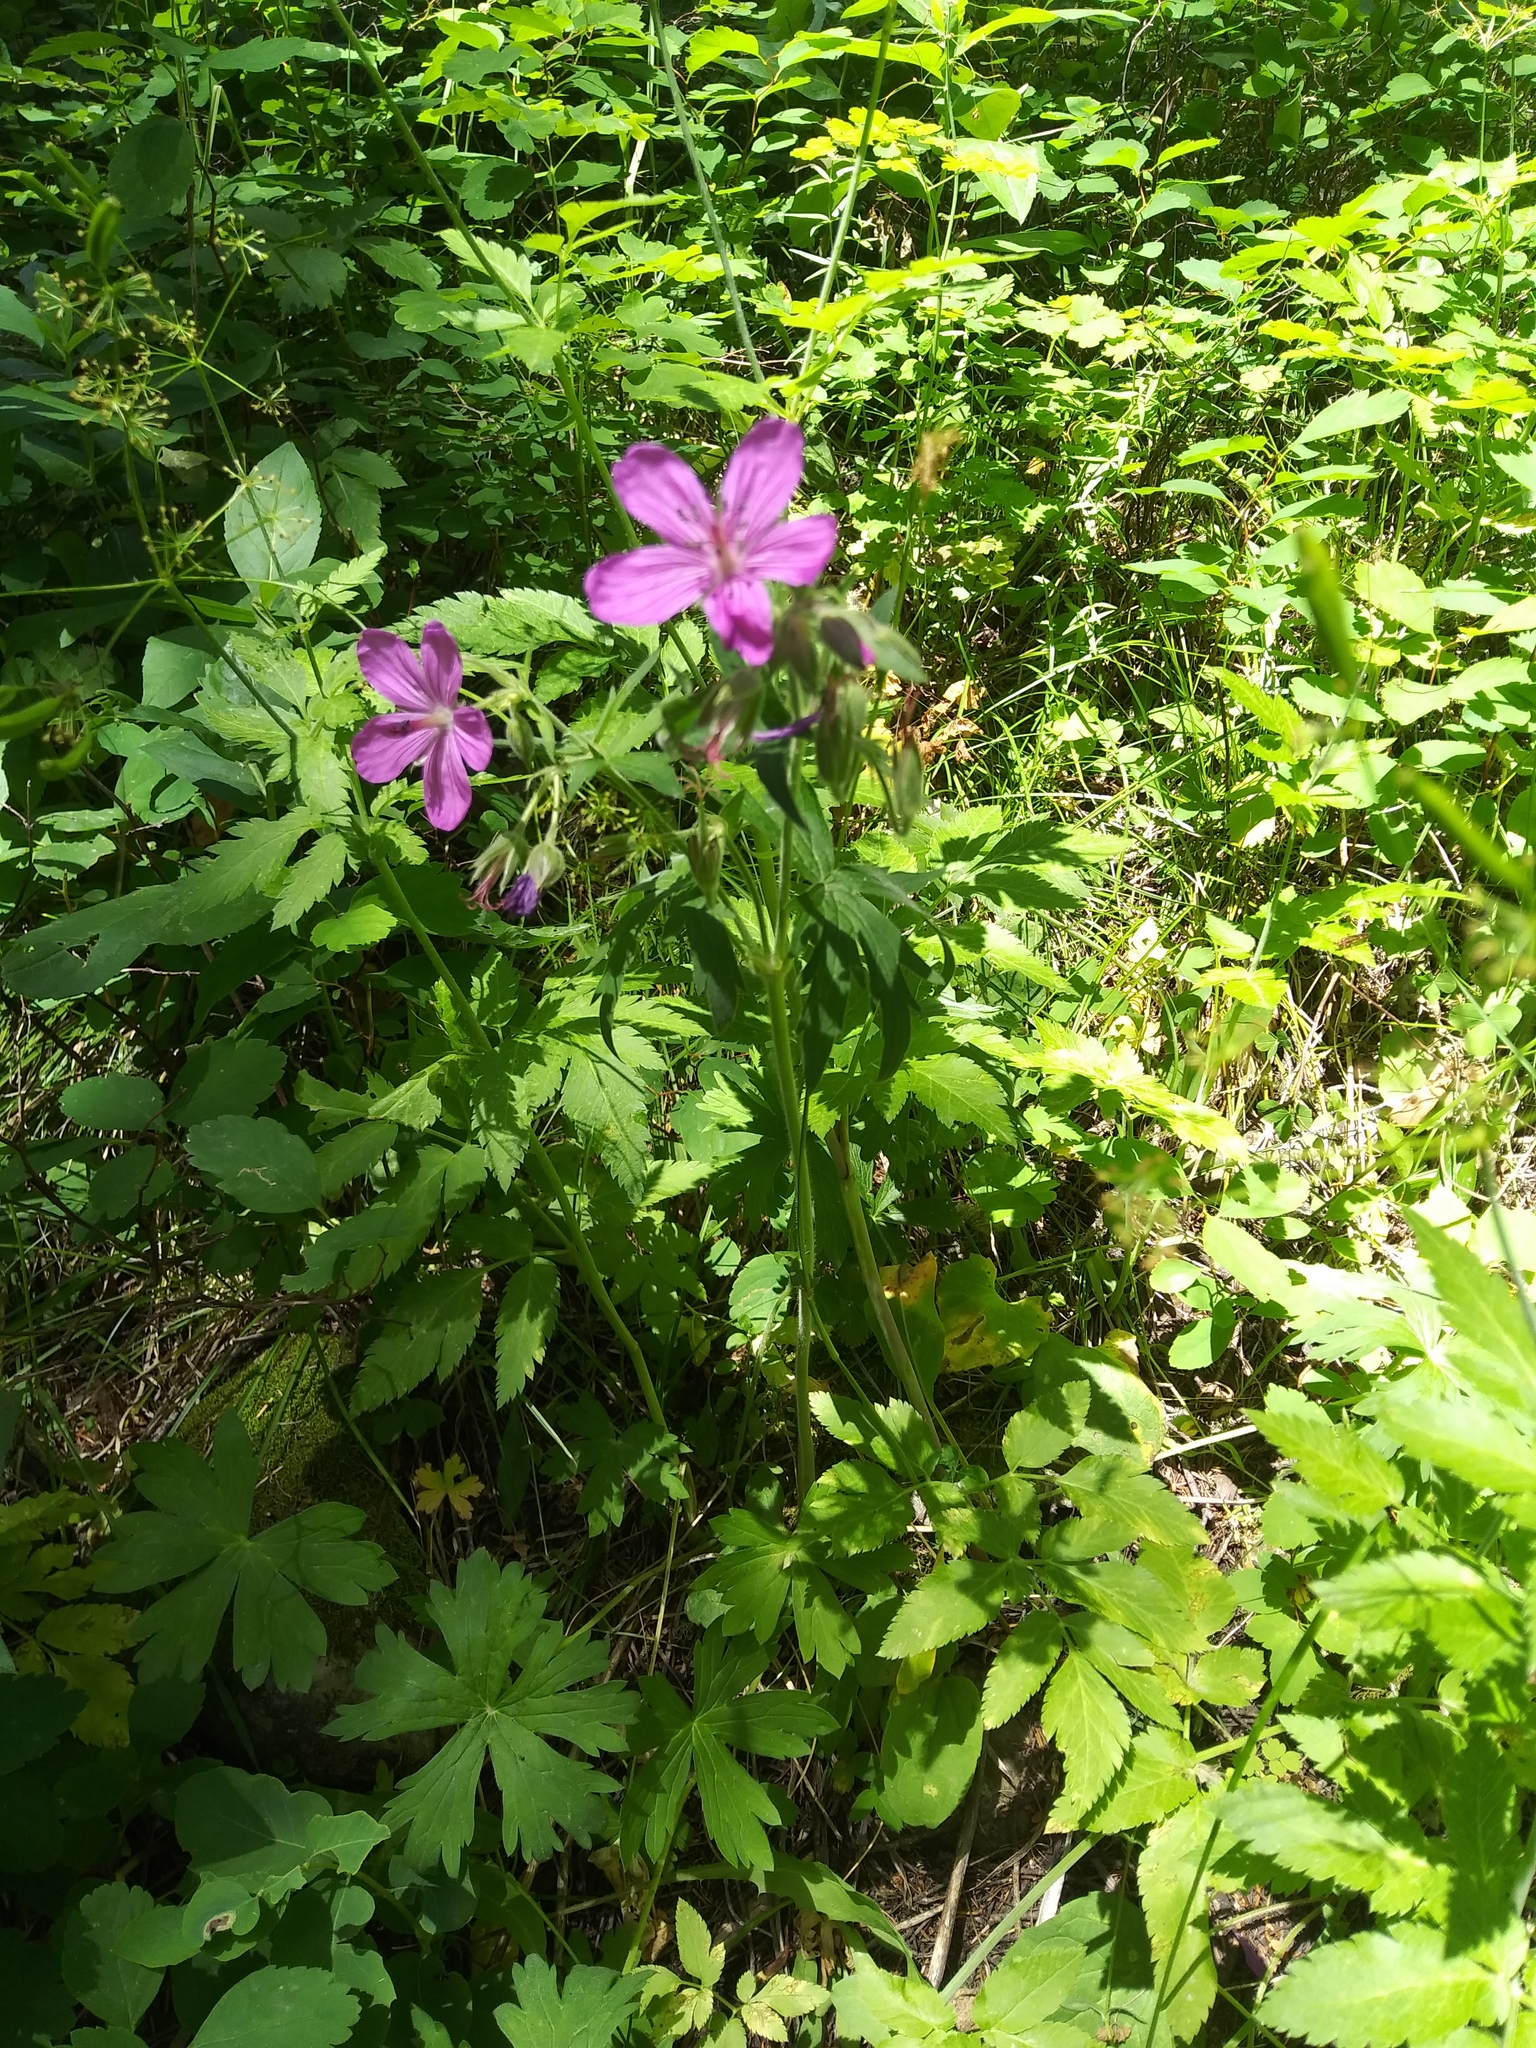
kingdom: Plantae
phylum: Tracheophyta
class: Magnoliopsida
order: Geraniales
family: Geraniaceae
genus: Geranium
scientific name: Geranium viscosissimum
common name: Purple geranium
